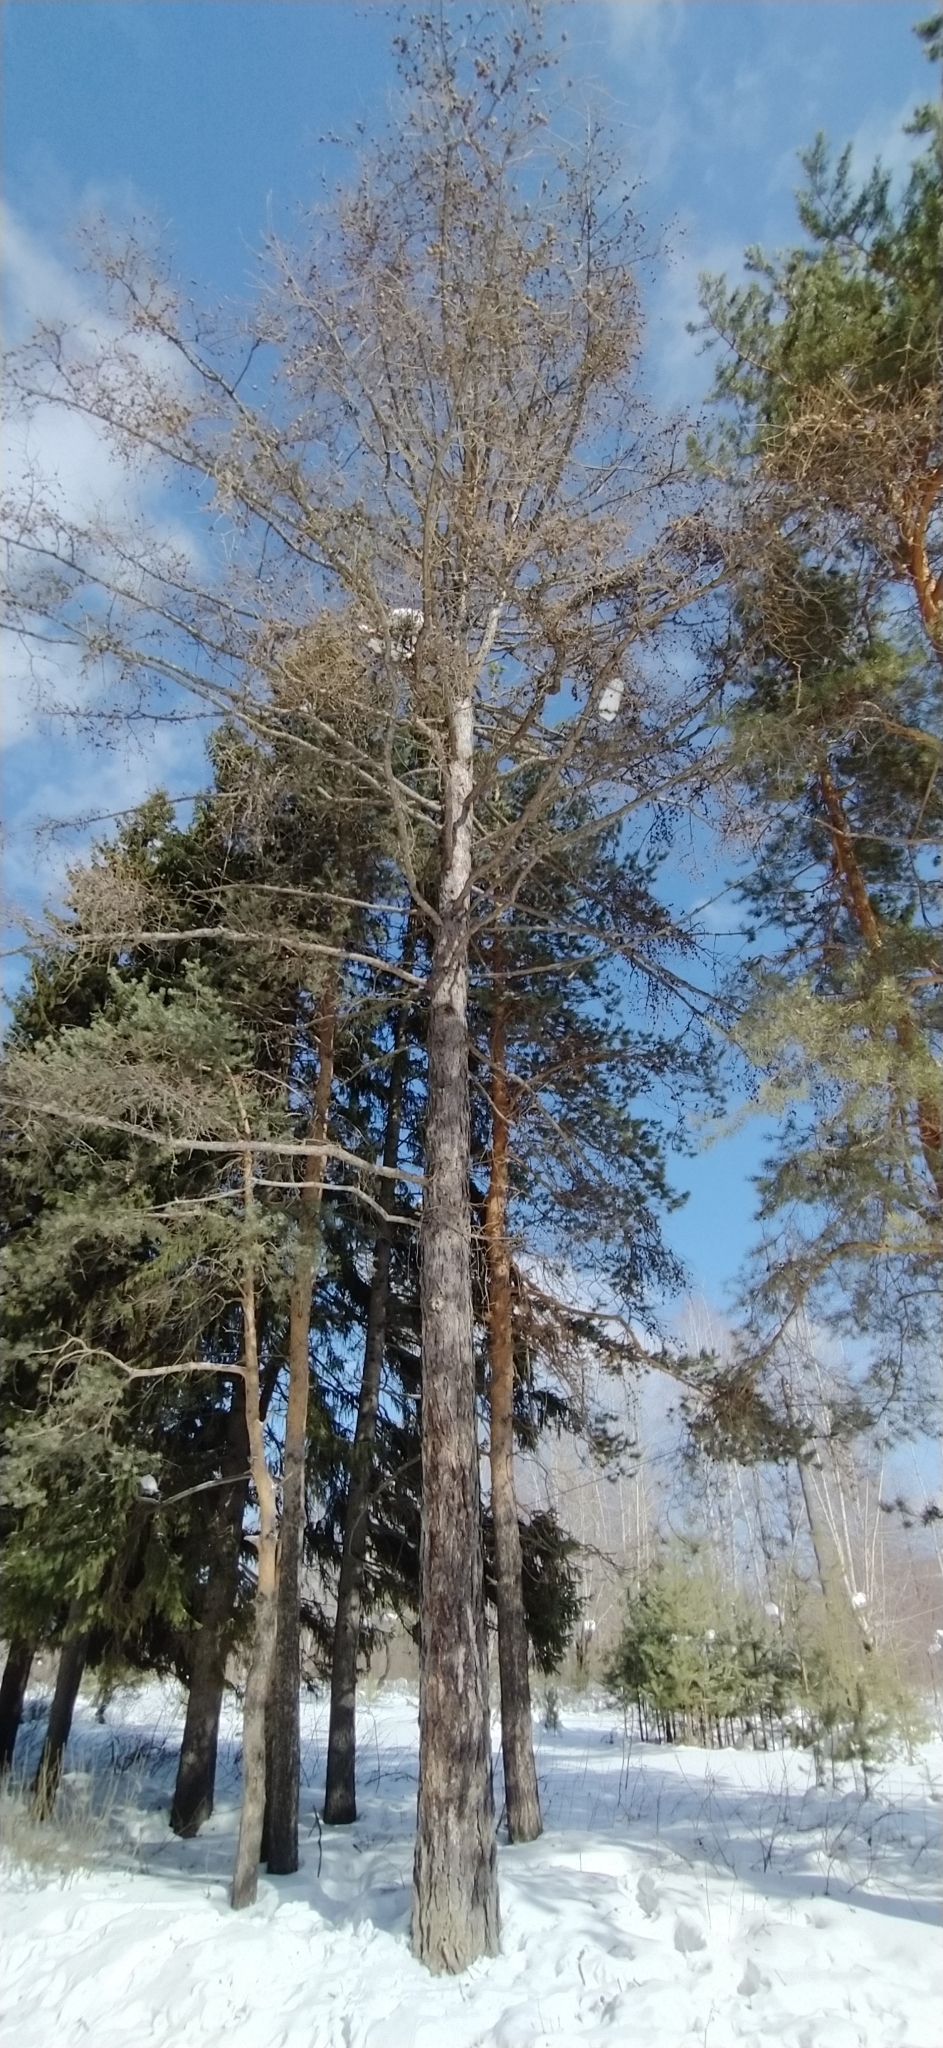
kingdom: Plantae
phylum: Tracheophyta
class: Pinopsida
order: Pinales
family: Pinaceae
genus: Larix
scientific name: Larix sibirica
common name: Siberian larch
